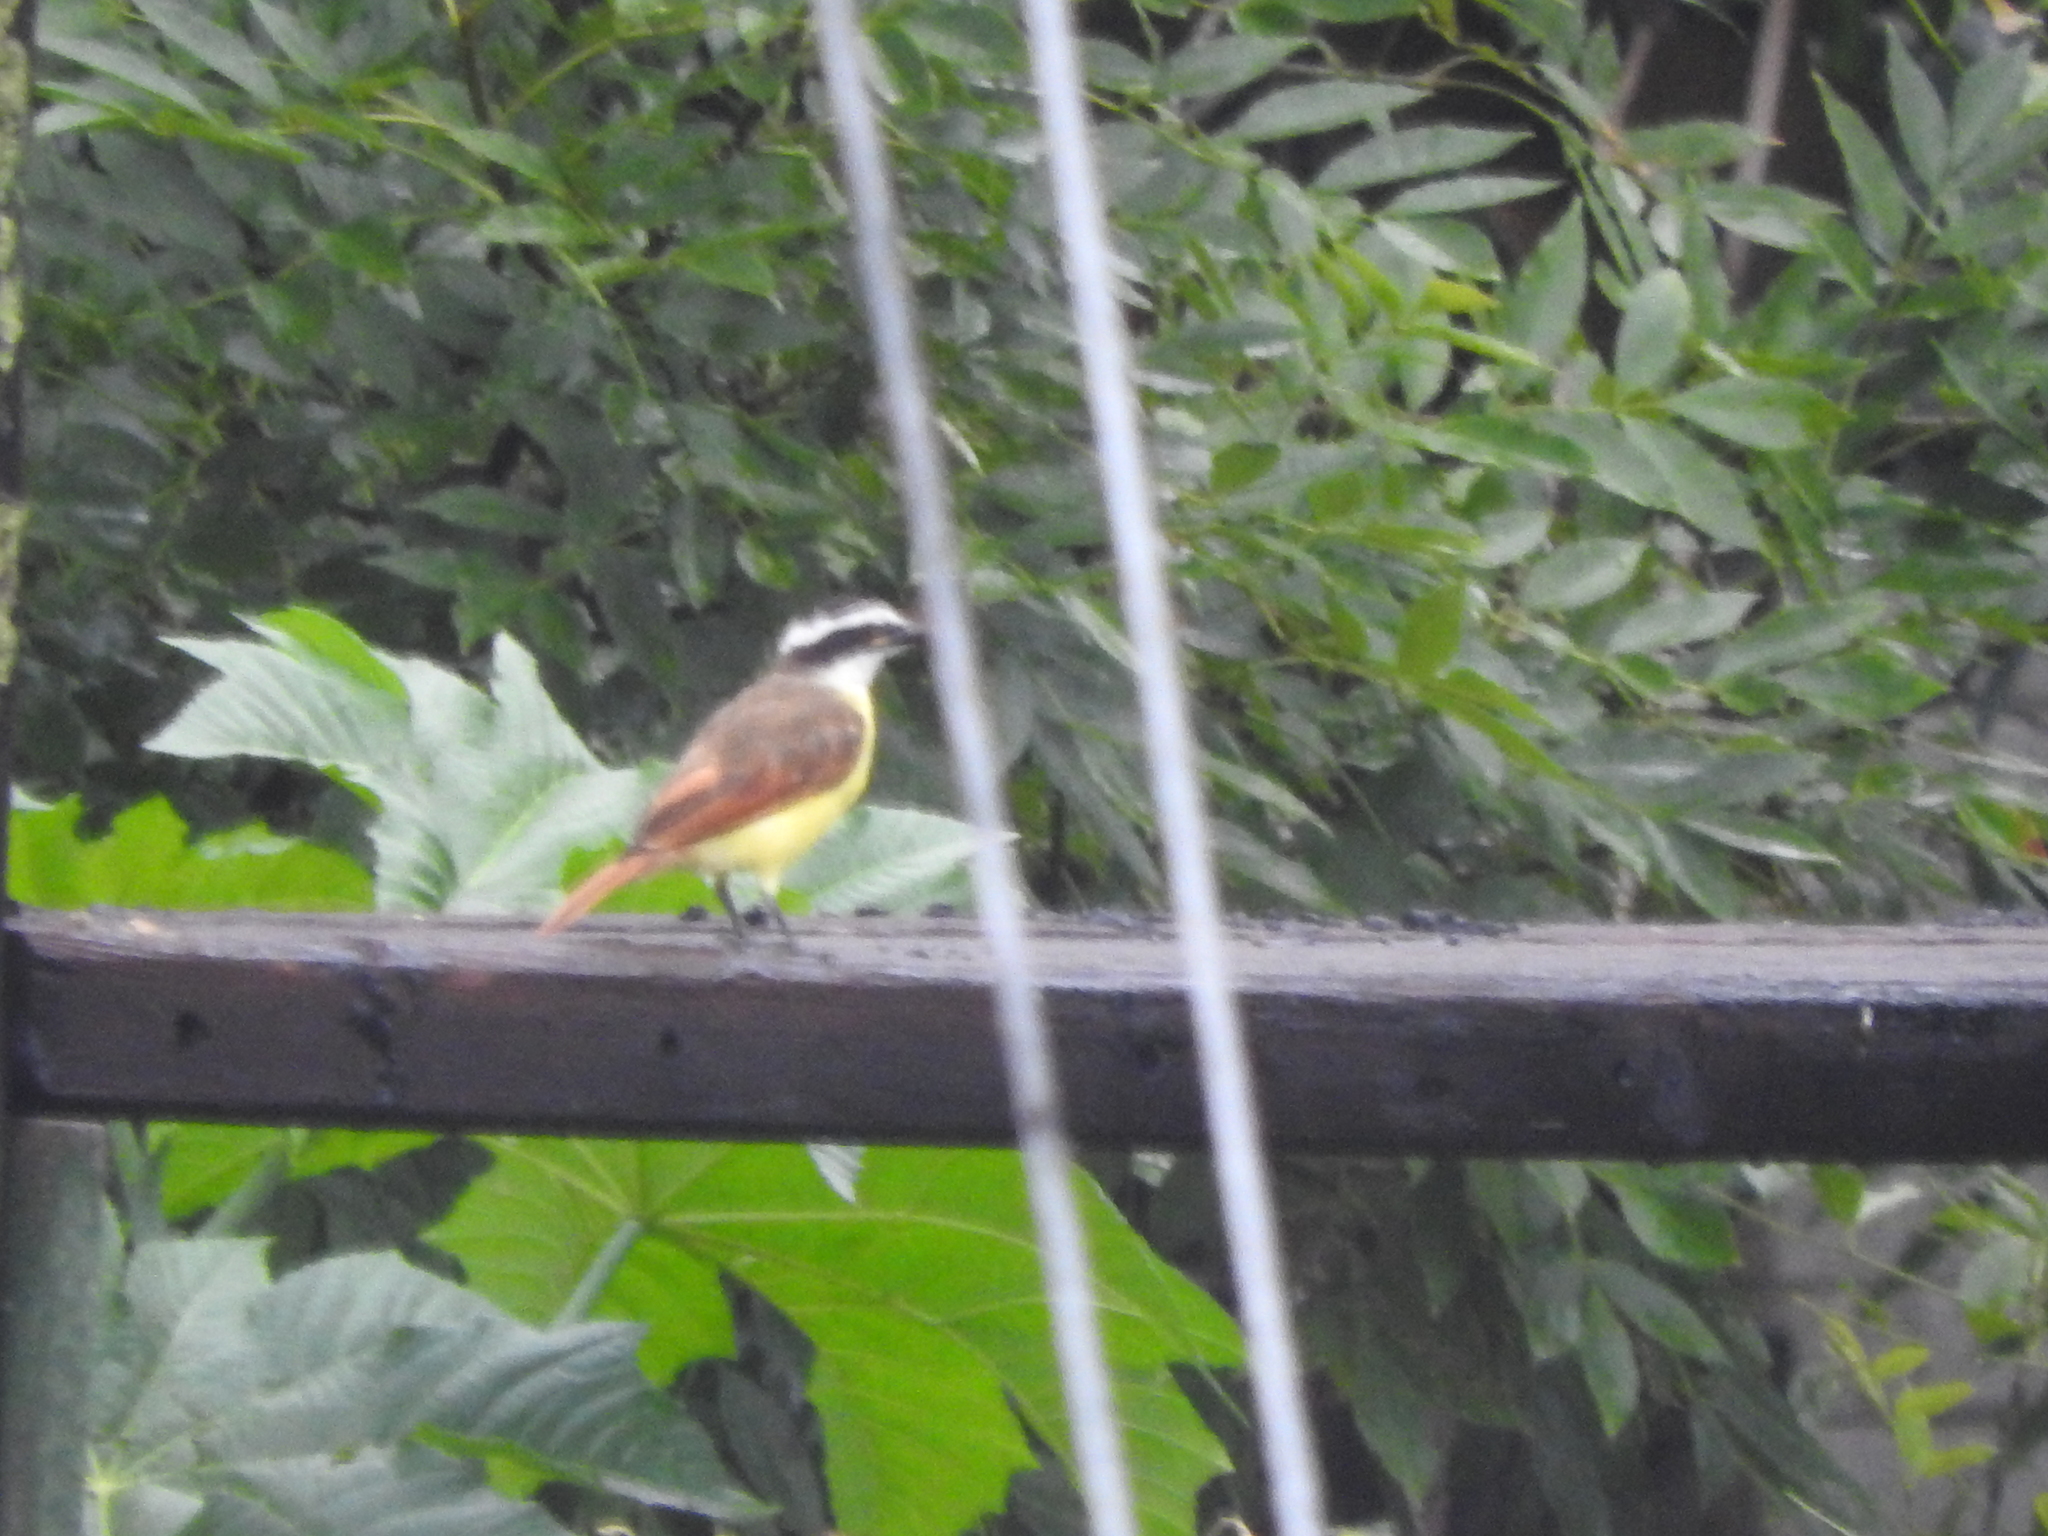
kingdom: Animalia
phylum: Chordata
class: Aves
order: Passeriformes
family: Tyrannidae
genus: Pitangus
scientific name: Pitangus sulphuratus
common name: Great kiskadee
